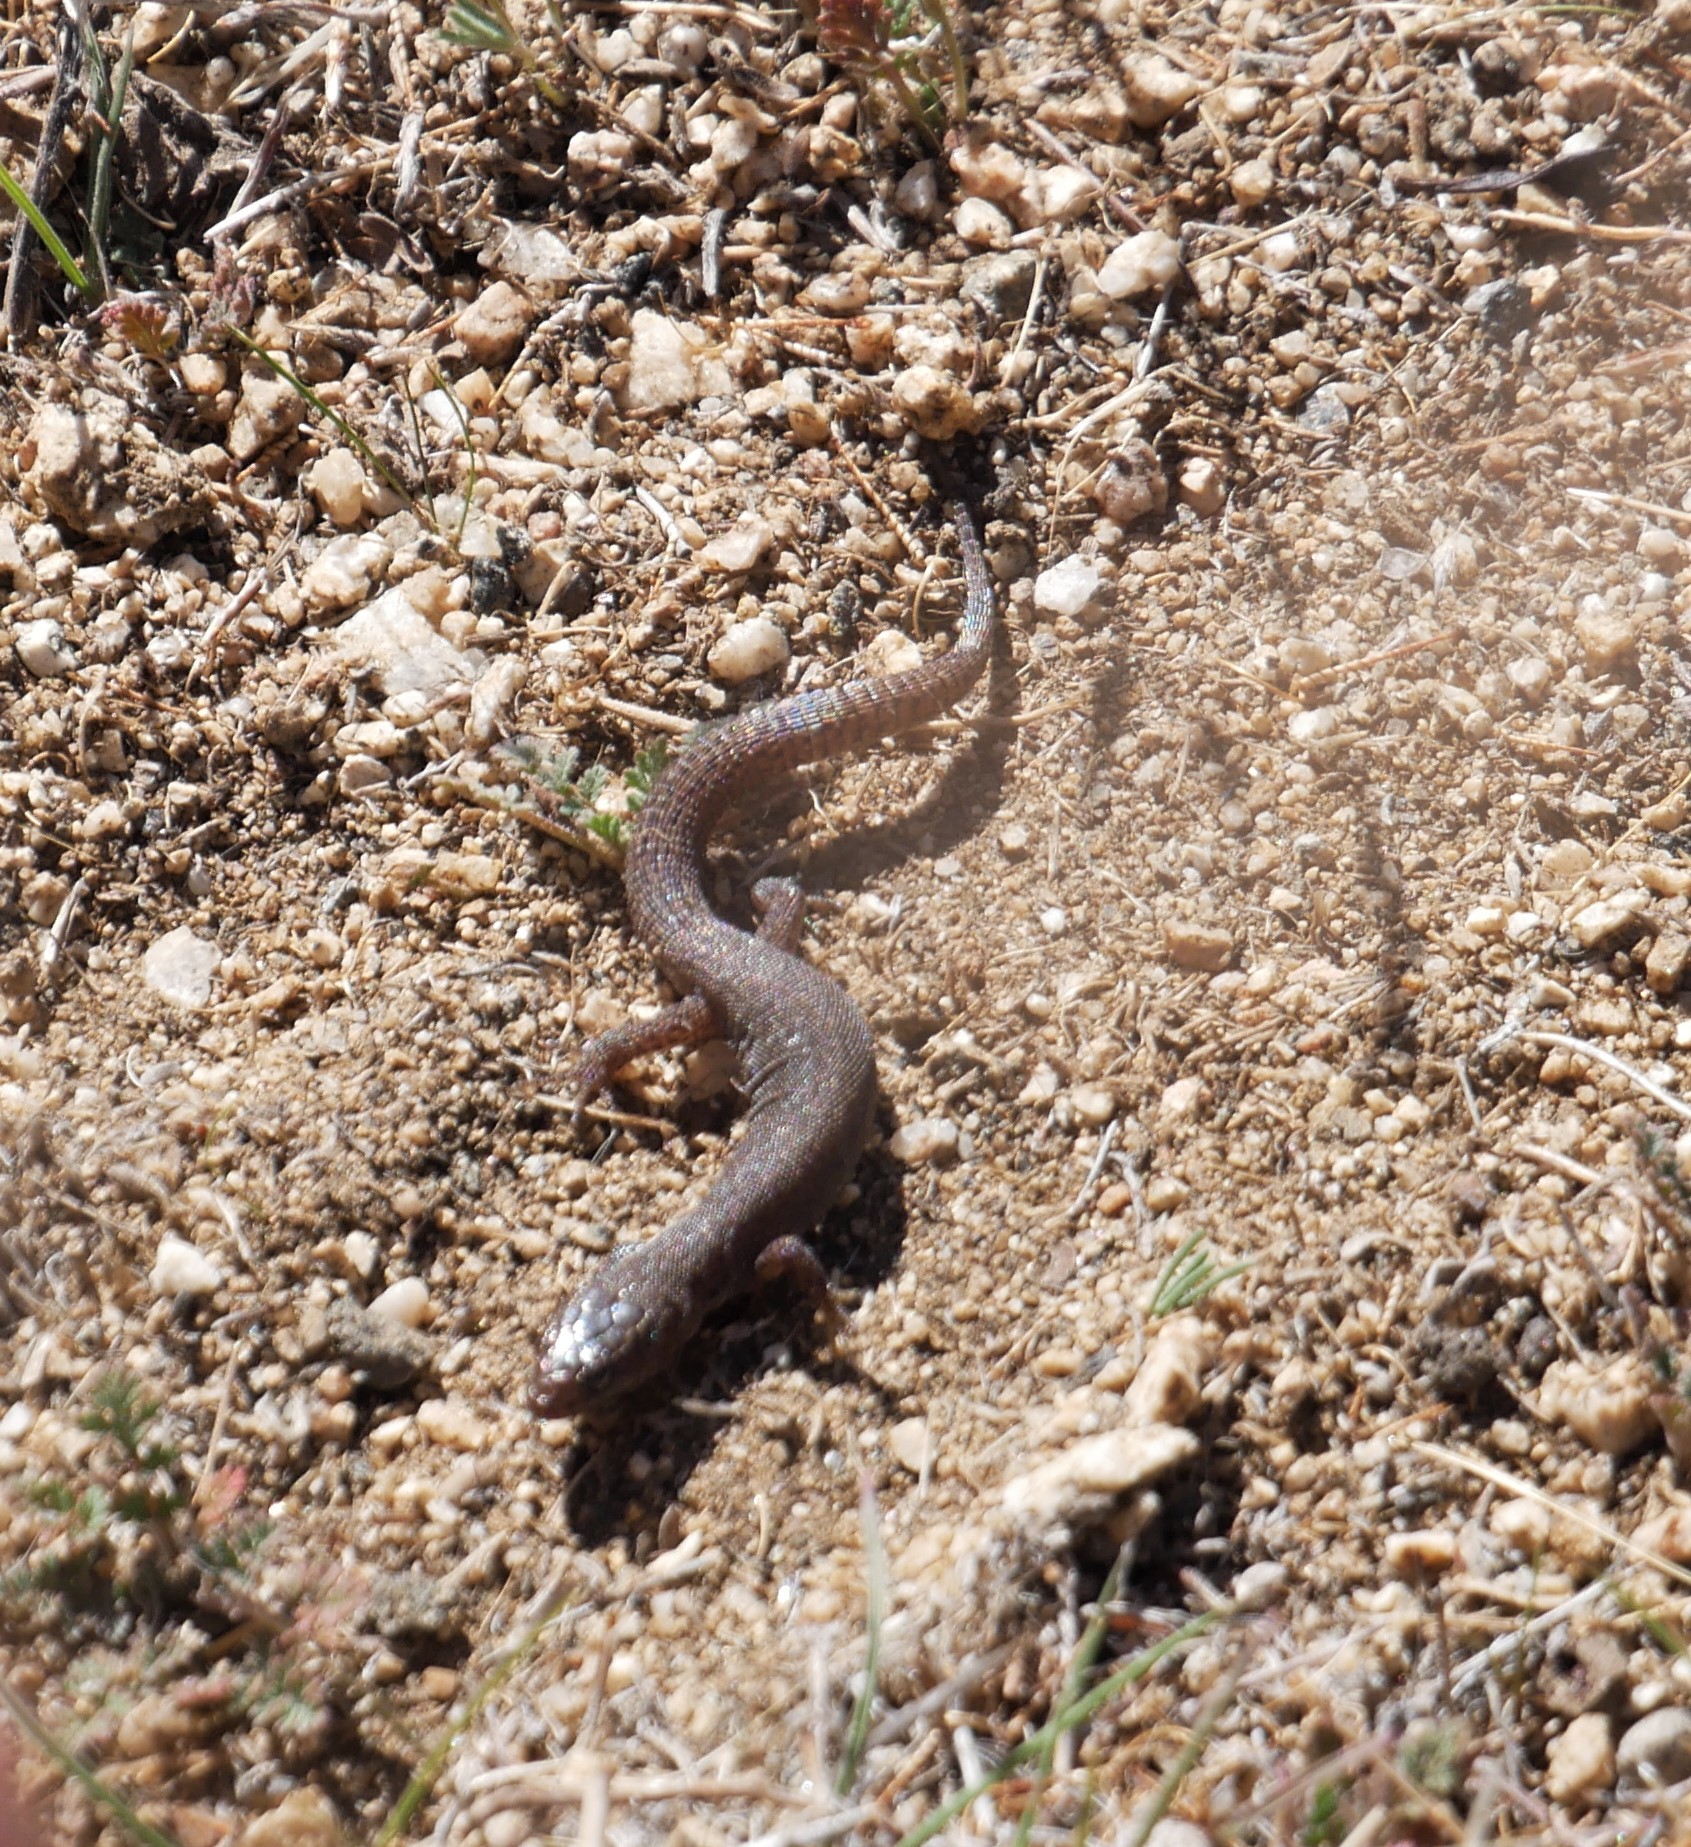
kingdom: Animalia
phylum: Chordata
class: Squamata
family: Xantusiidae
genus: Xantusia
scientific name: Xantusia vigilis
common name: Desert night lizard
